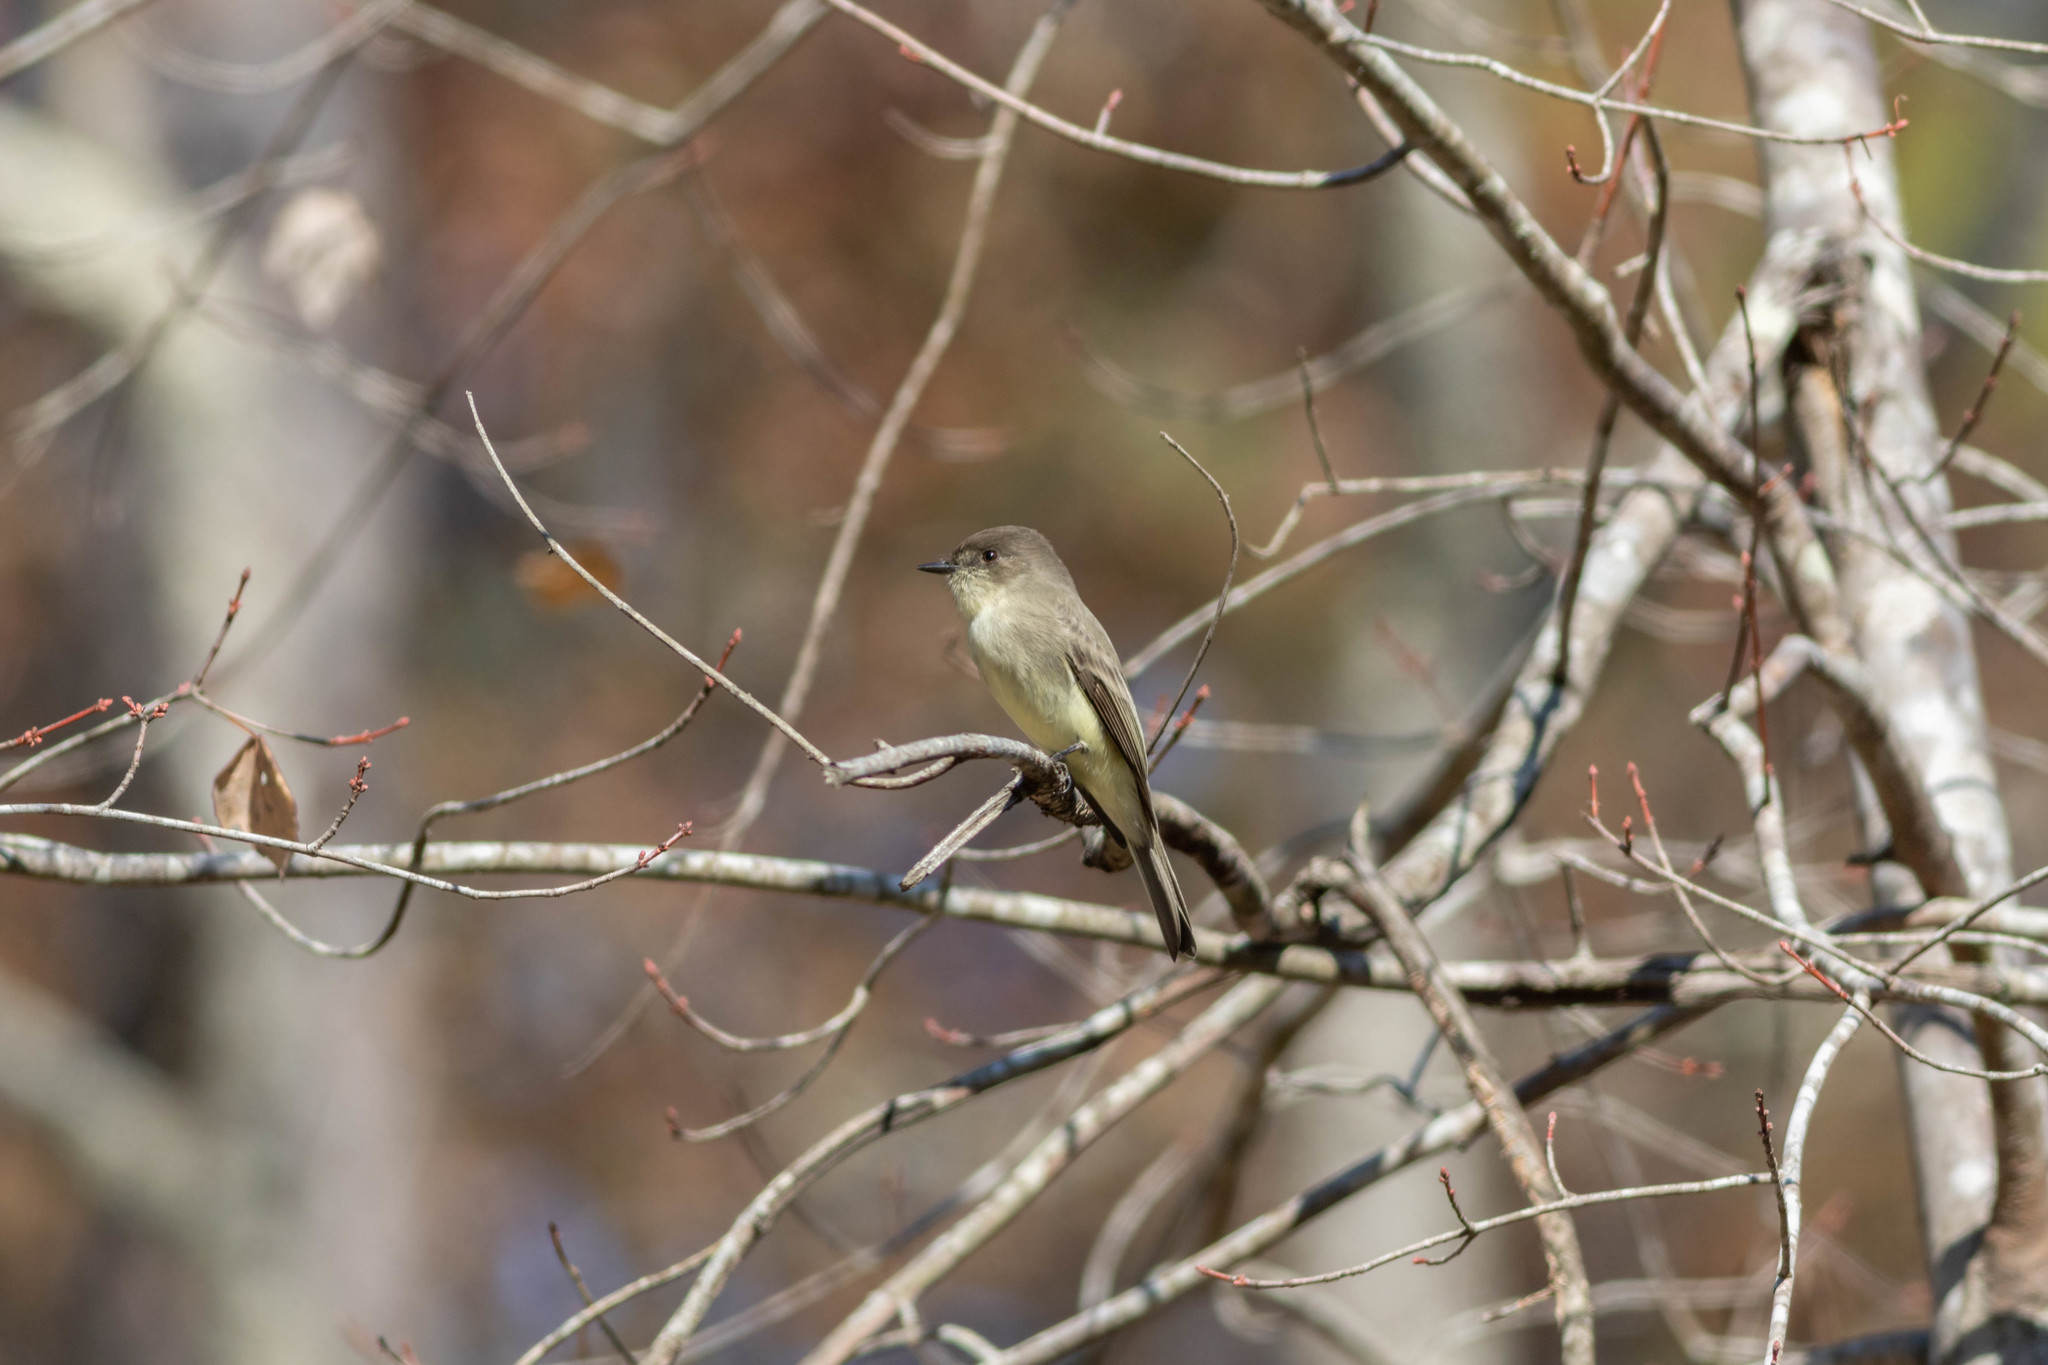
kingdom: Animalia
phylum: Chordata
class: Aves
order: Passeriformes
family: Tyrannidae
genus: Sayornis
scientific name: Sayornis phoebe
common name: Eastern phoebe
